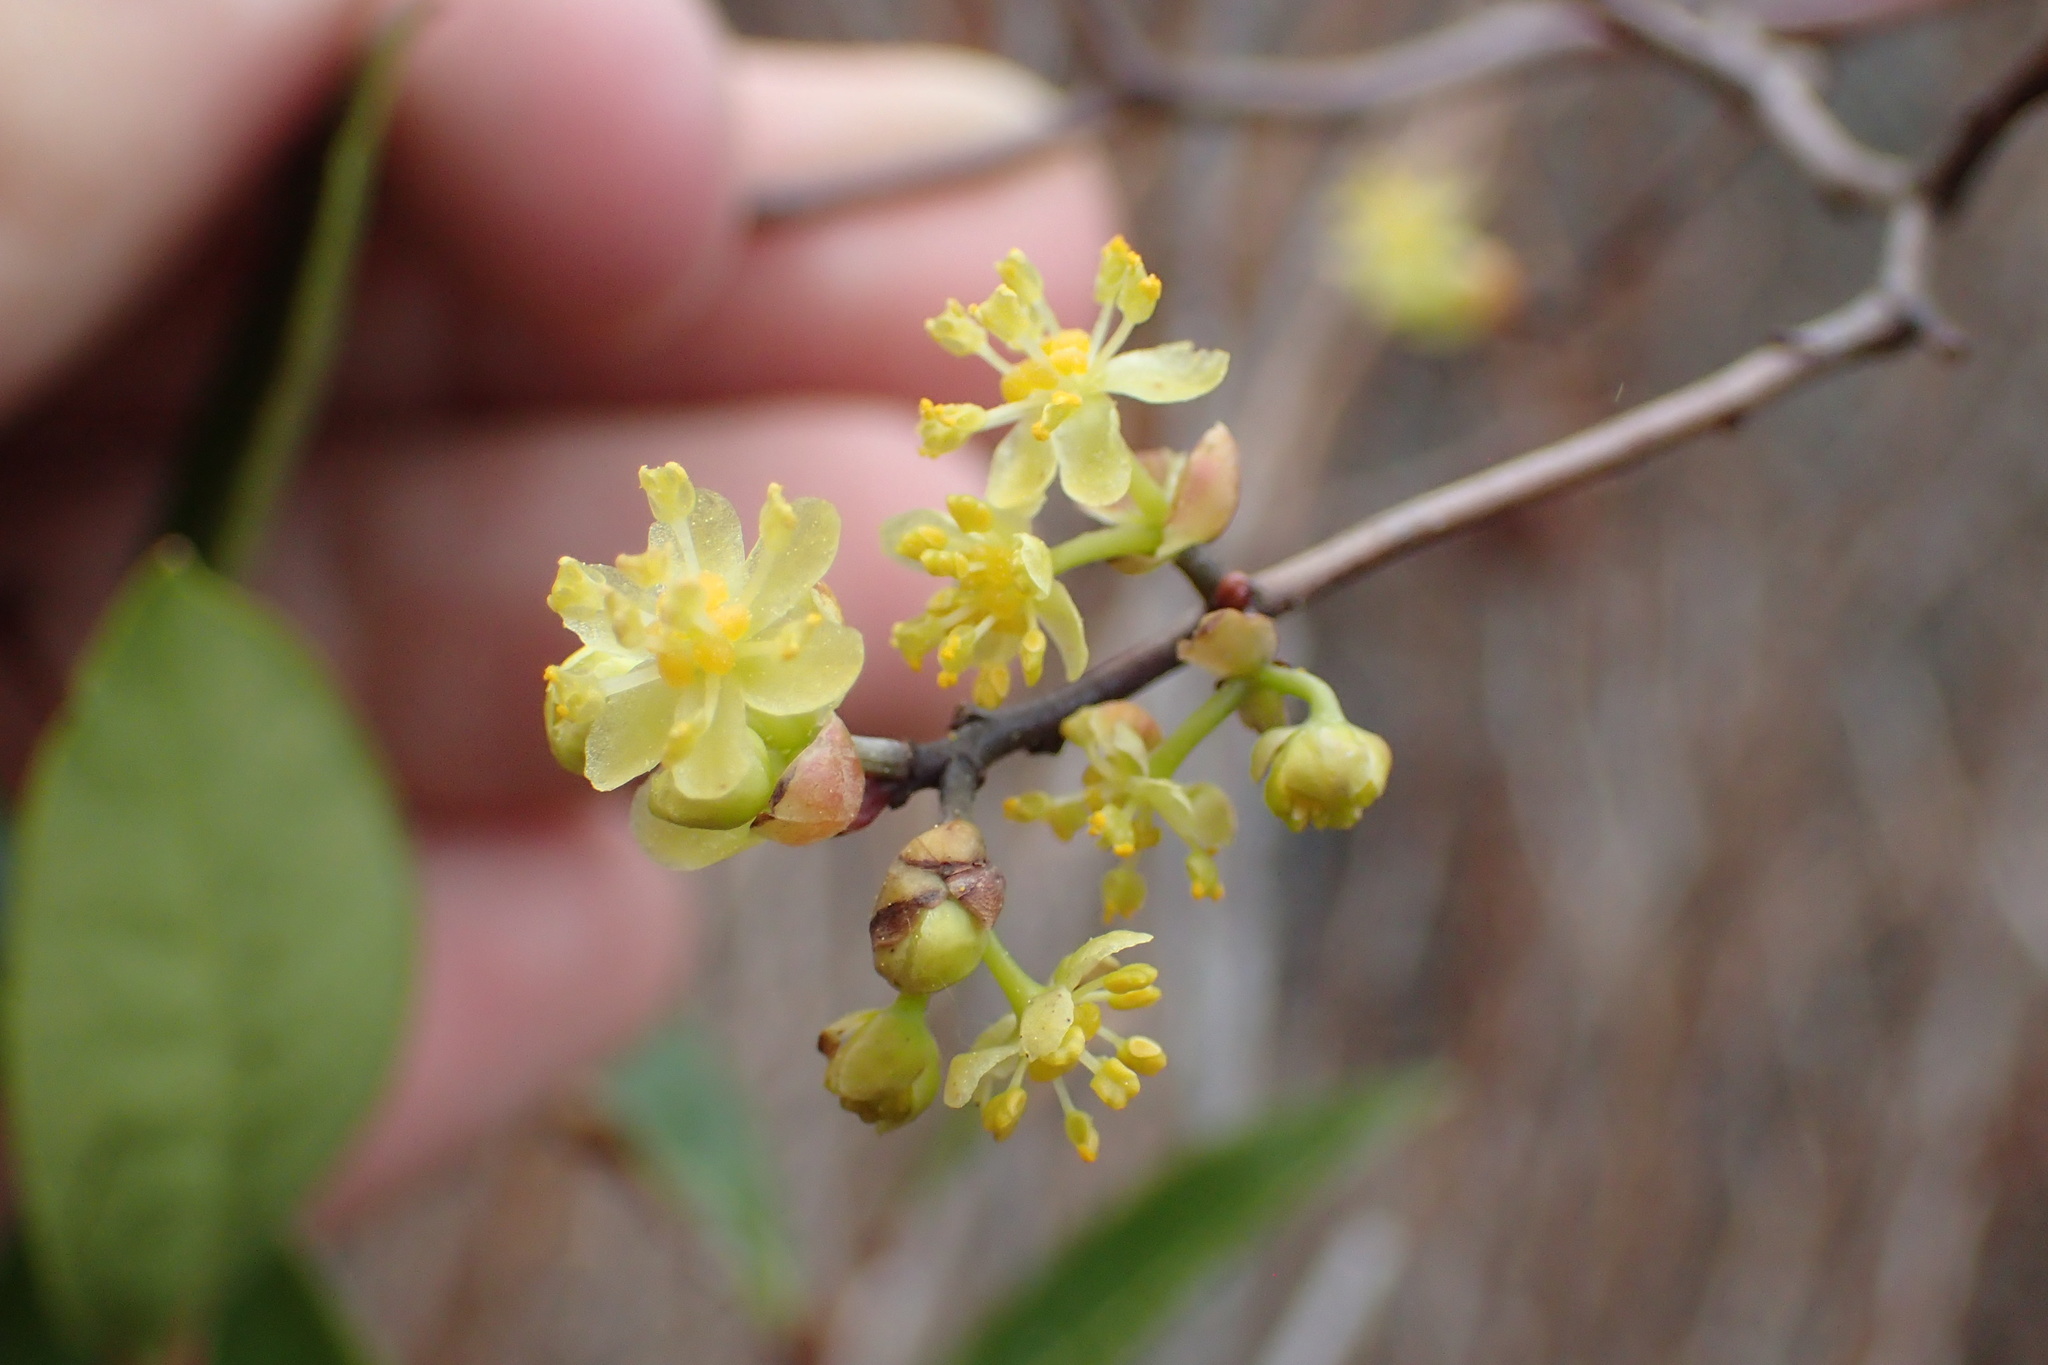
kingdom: Plantae
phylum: Tracheophyta
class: Magnoliopsida
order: Laurales
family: Lauraceae
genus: Sassafras
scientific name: Sassafras albidum
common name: Sassafras
